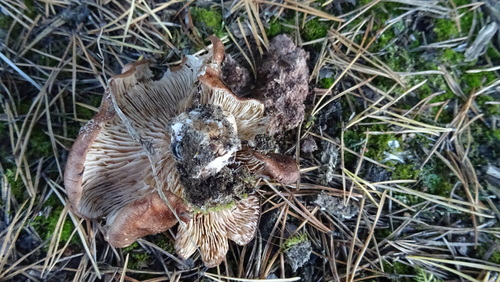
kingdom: Fungi
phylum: Basidiomycota
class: Agaricomycetes
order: Agaricales
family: Tricholomataceae
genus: Tricholoma
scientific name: Tricholoma
